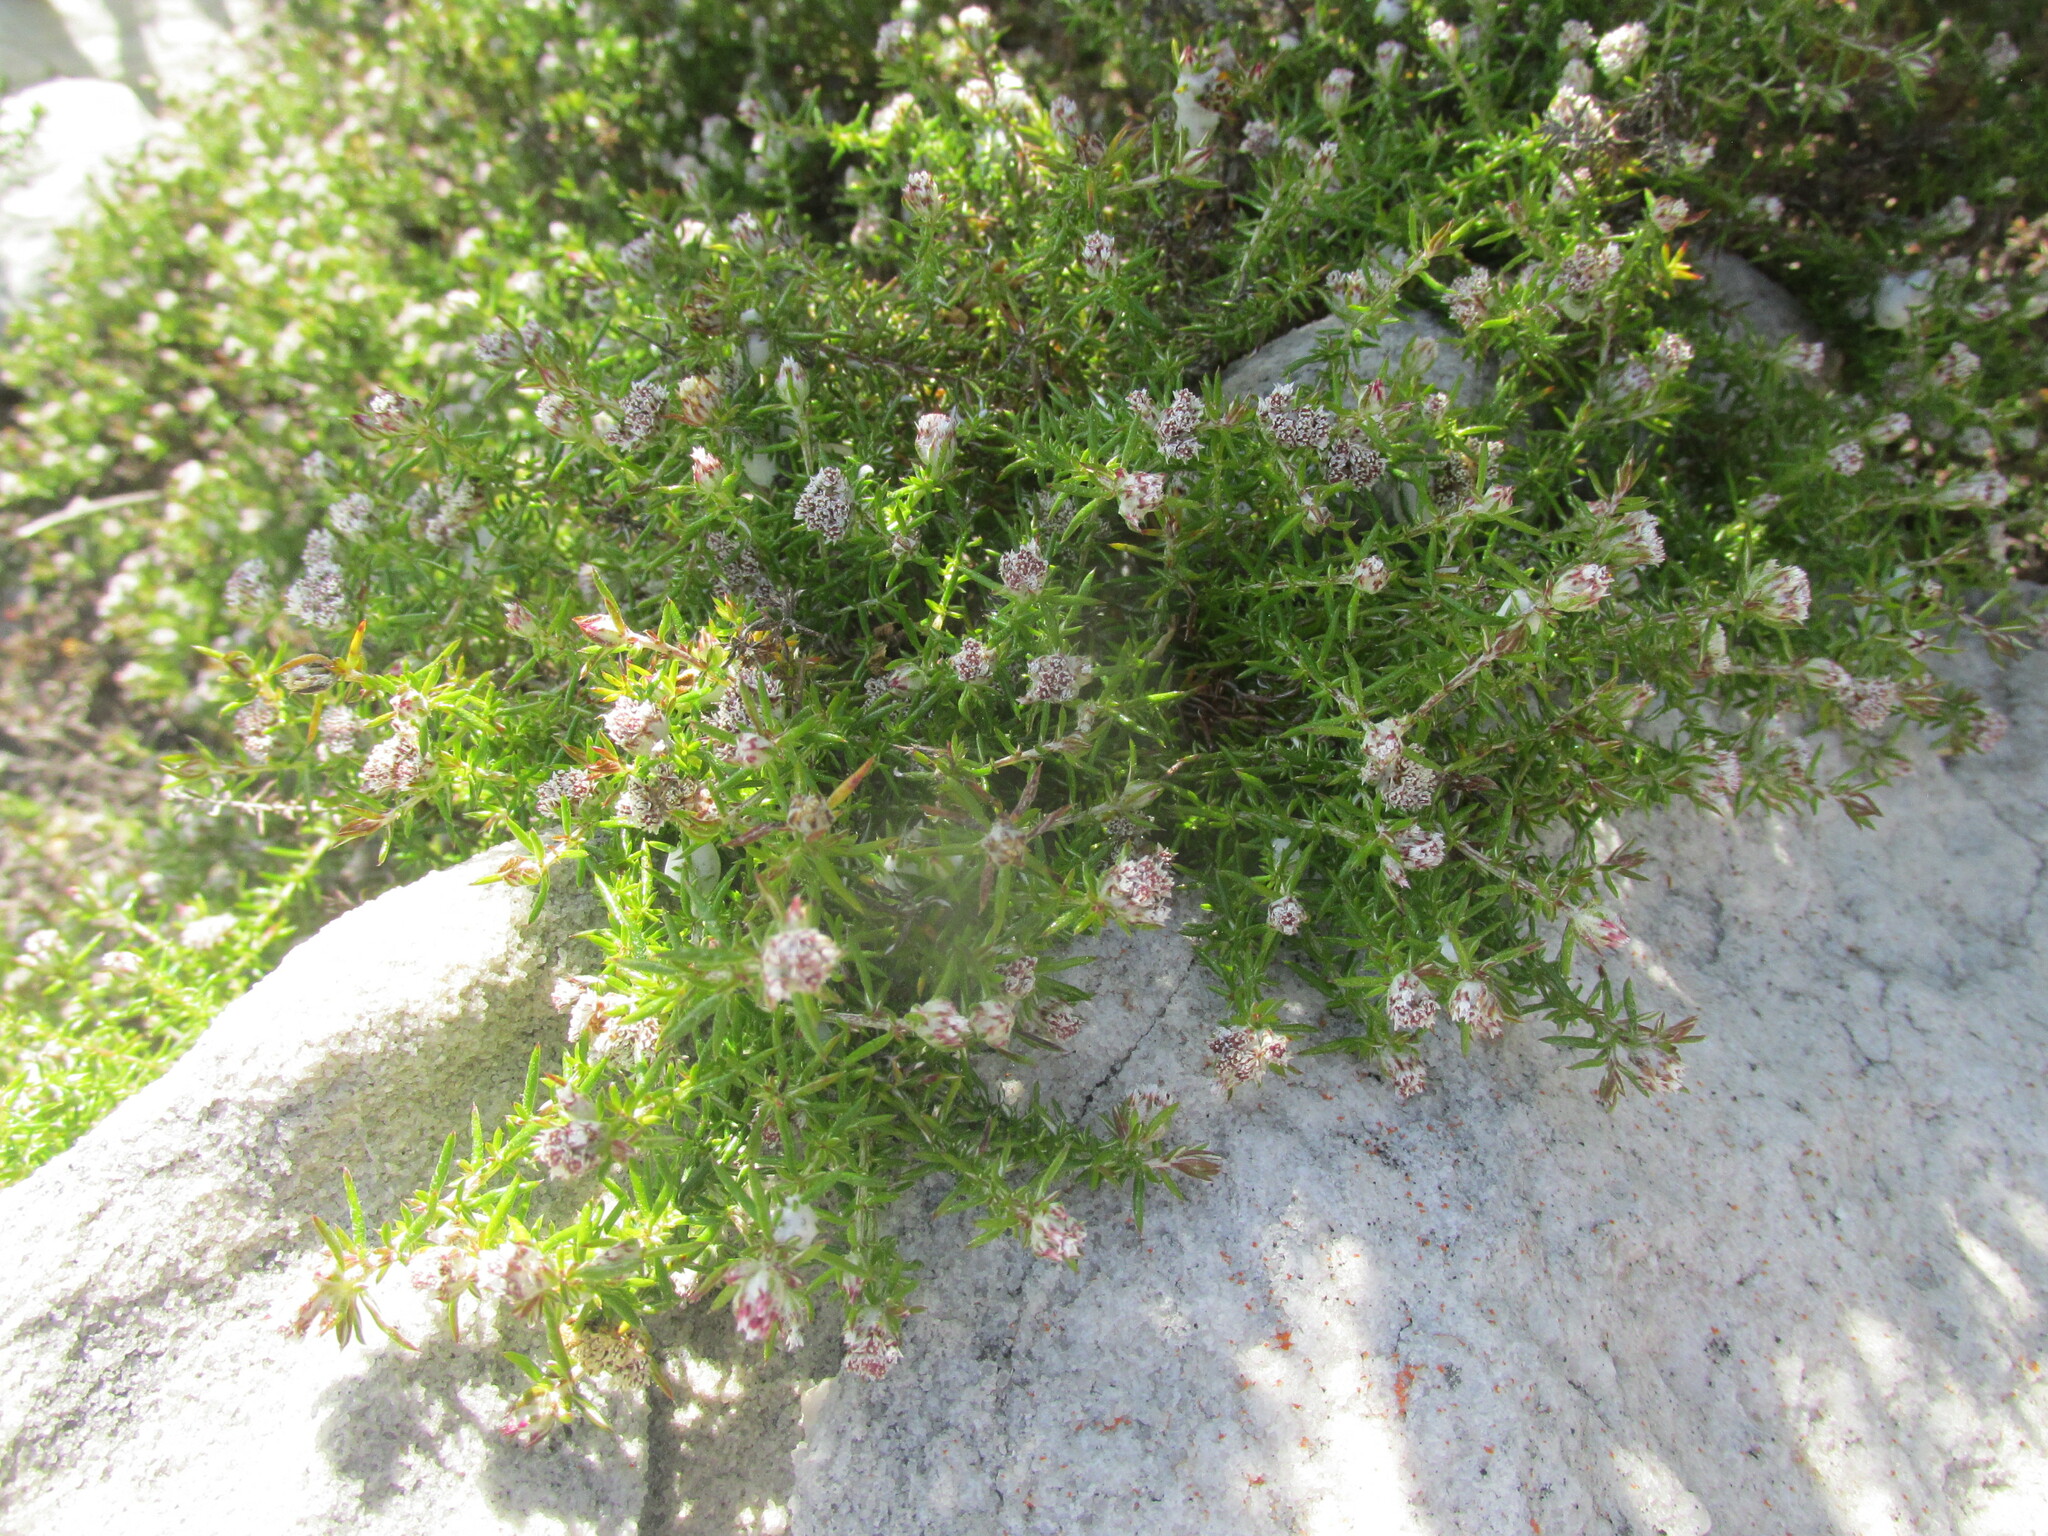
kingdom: Plantae
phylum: Tracheophyta
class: Magnoliopsida
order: Asterales
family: Asteraceae
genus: Metalasia
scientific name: Metalasia divergens
